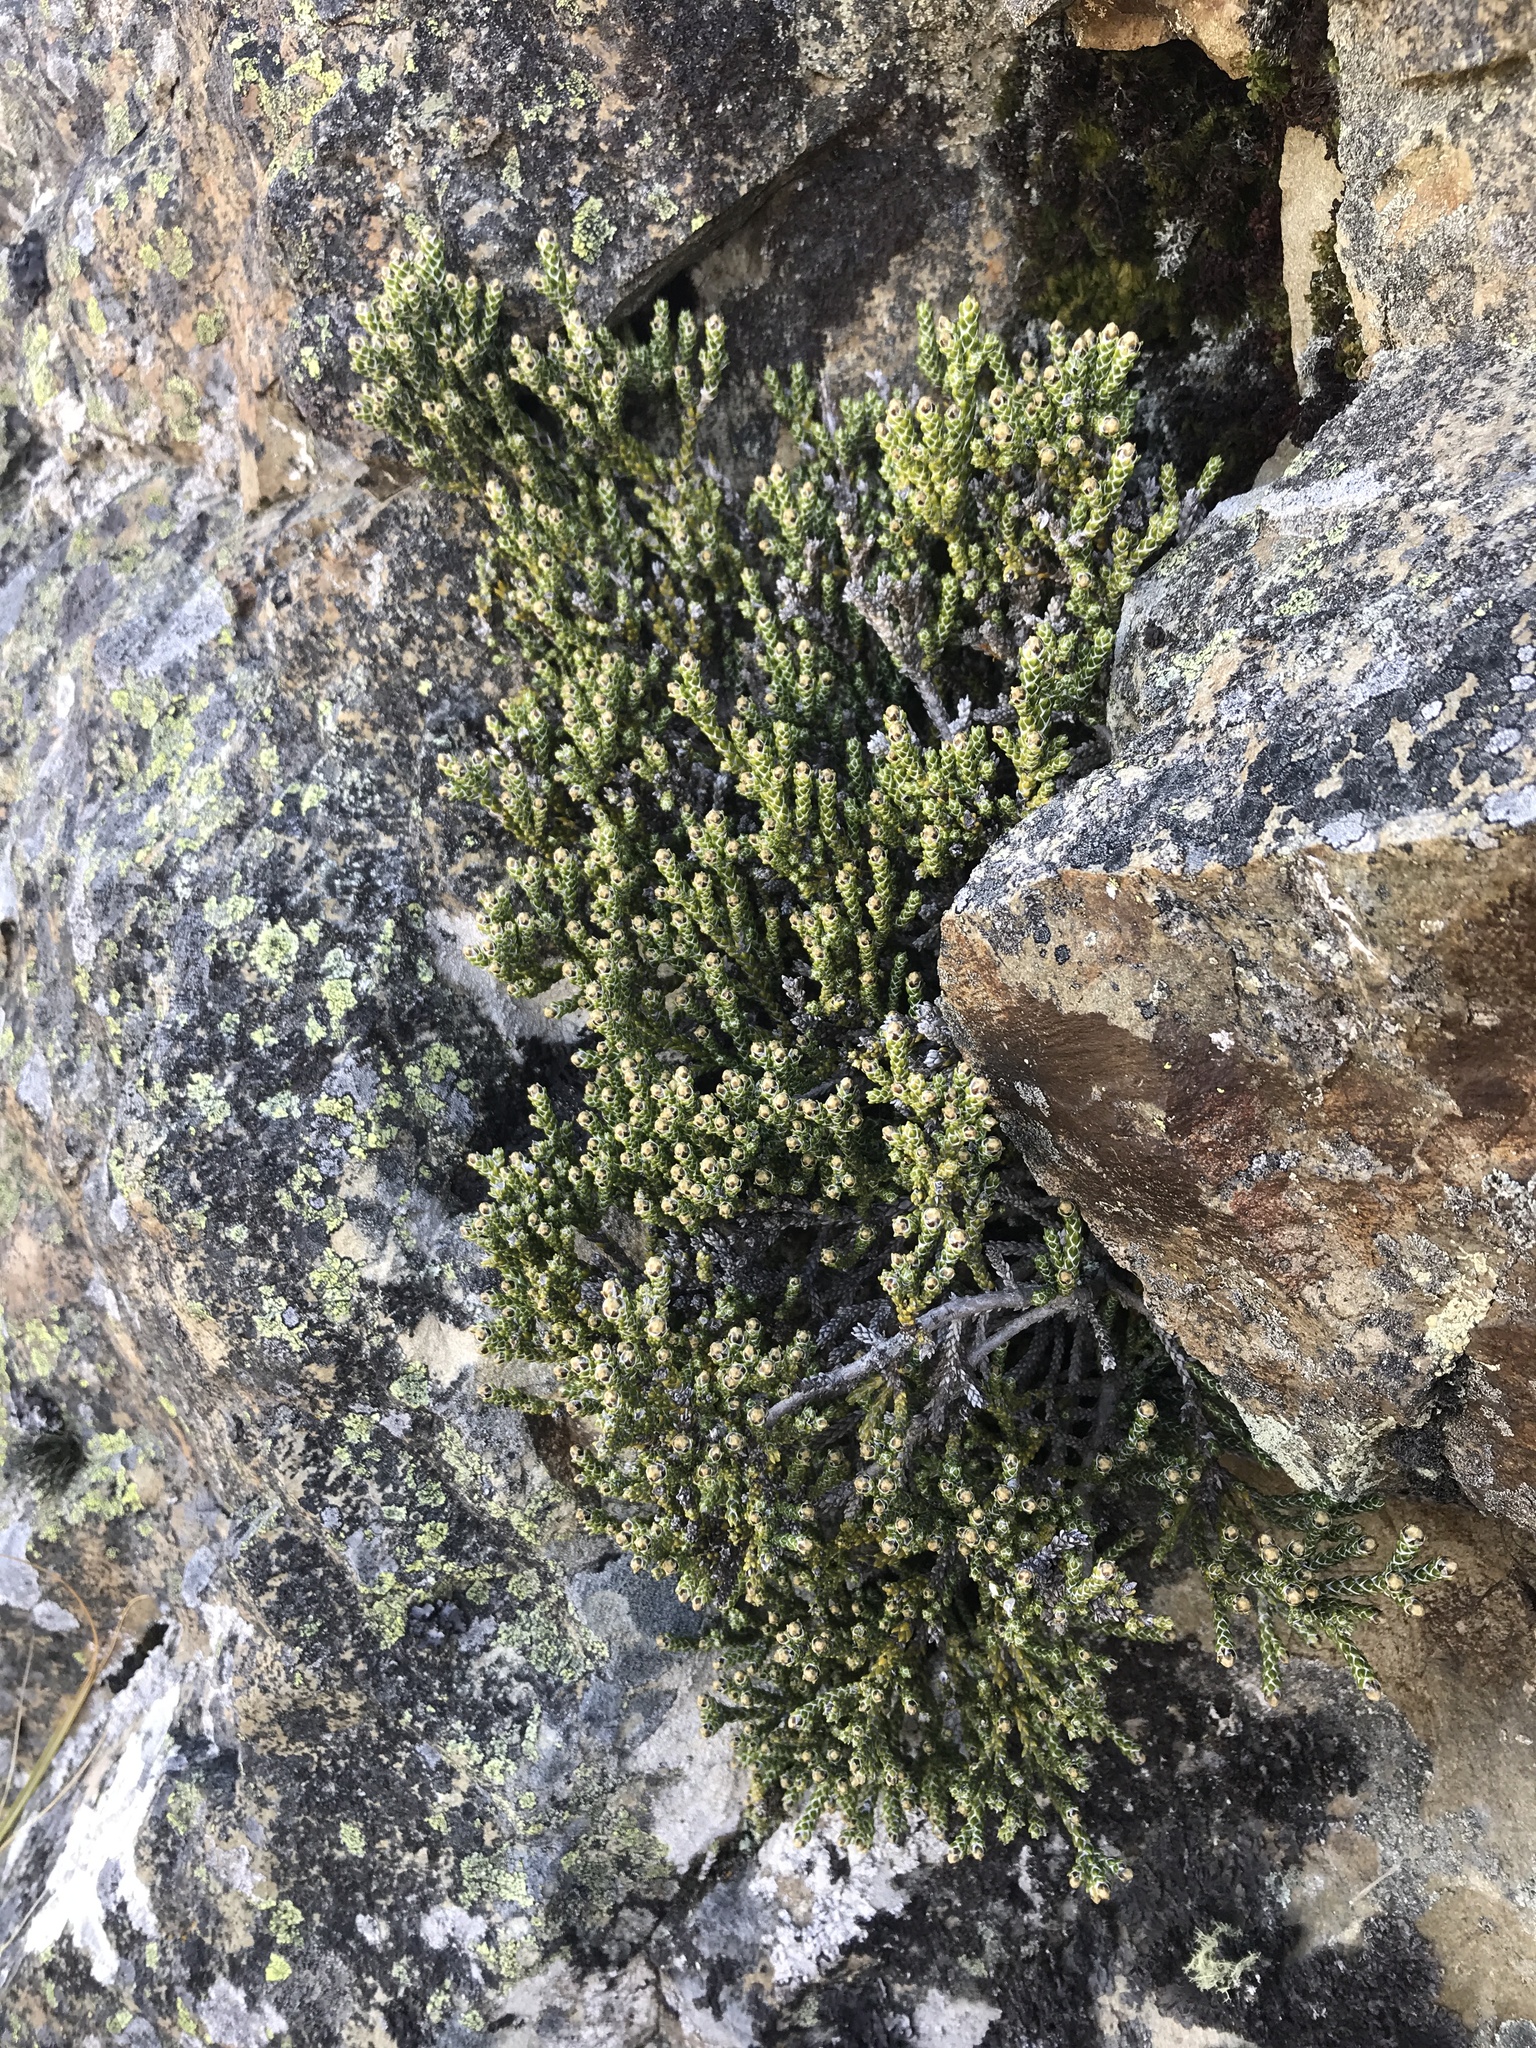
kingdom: Plantae
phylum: Tracheophyta
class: Magnoliopsida
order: Asterales
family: Asteraceae
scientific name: Asteraceae
